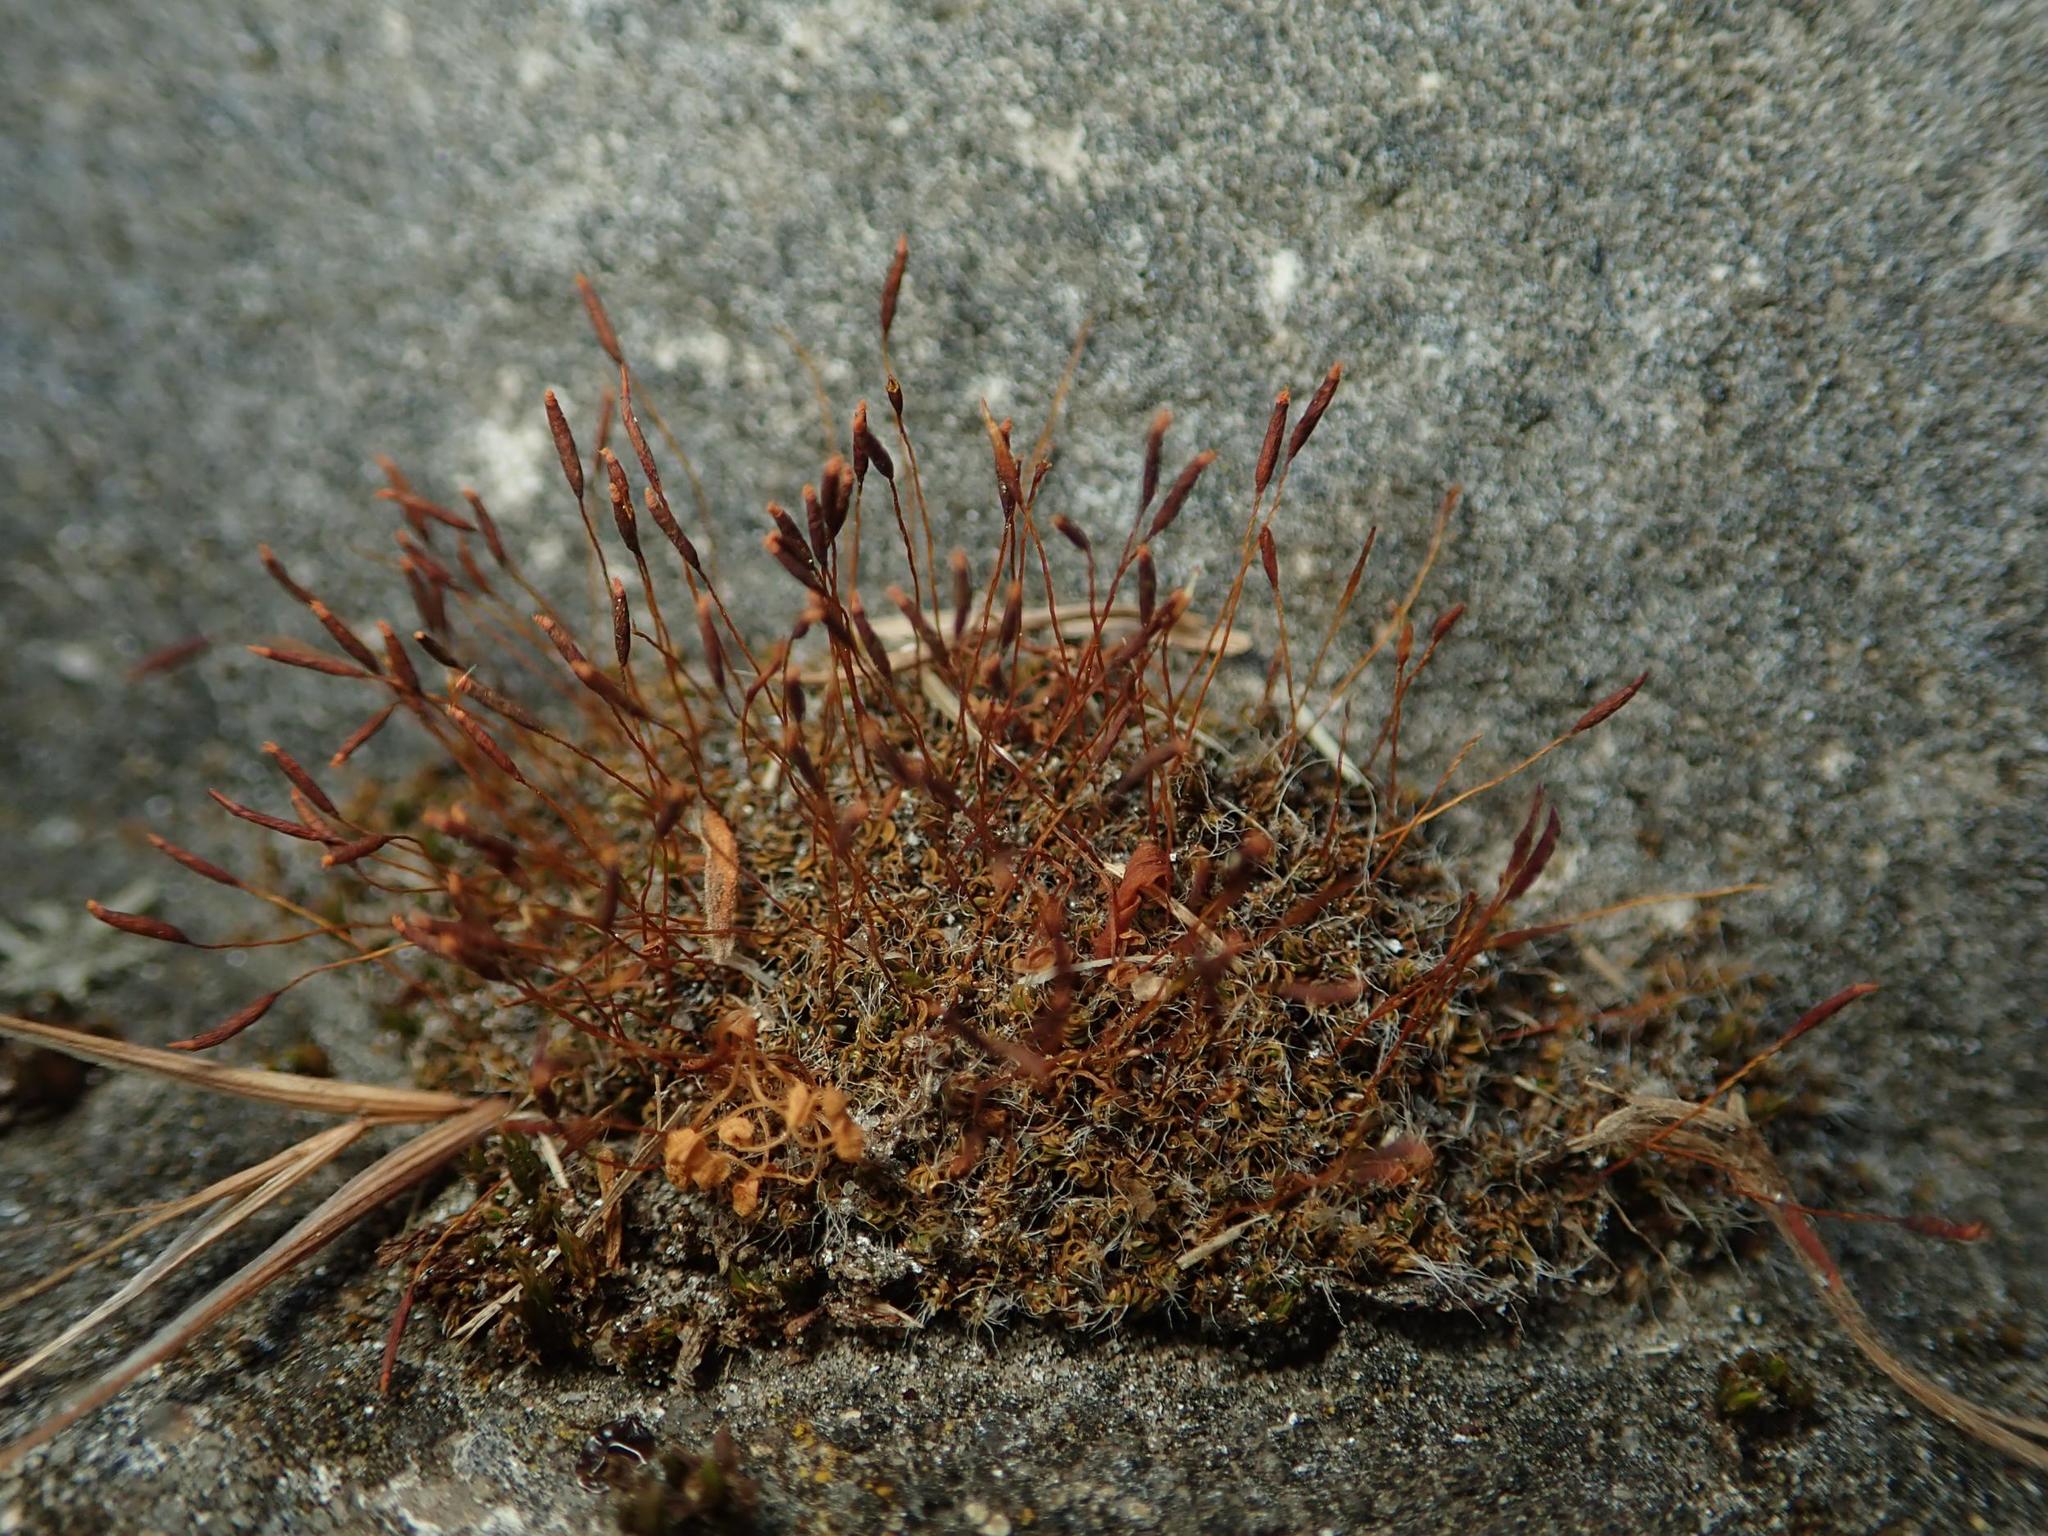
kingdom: Plantae
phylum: Bryophyta
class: Bryopsida
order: Pottiales
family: Pottiaceae
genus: Tortula
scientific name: Tortula muralis
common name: Wall screw-moss
